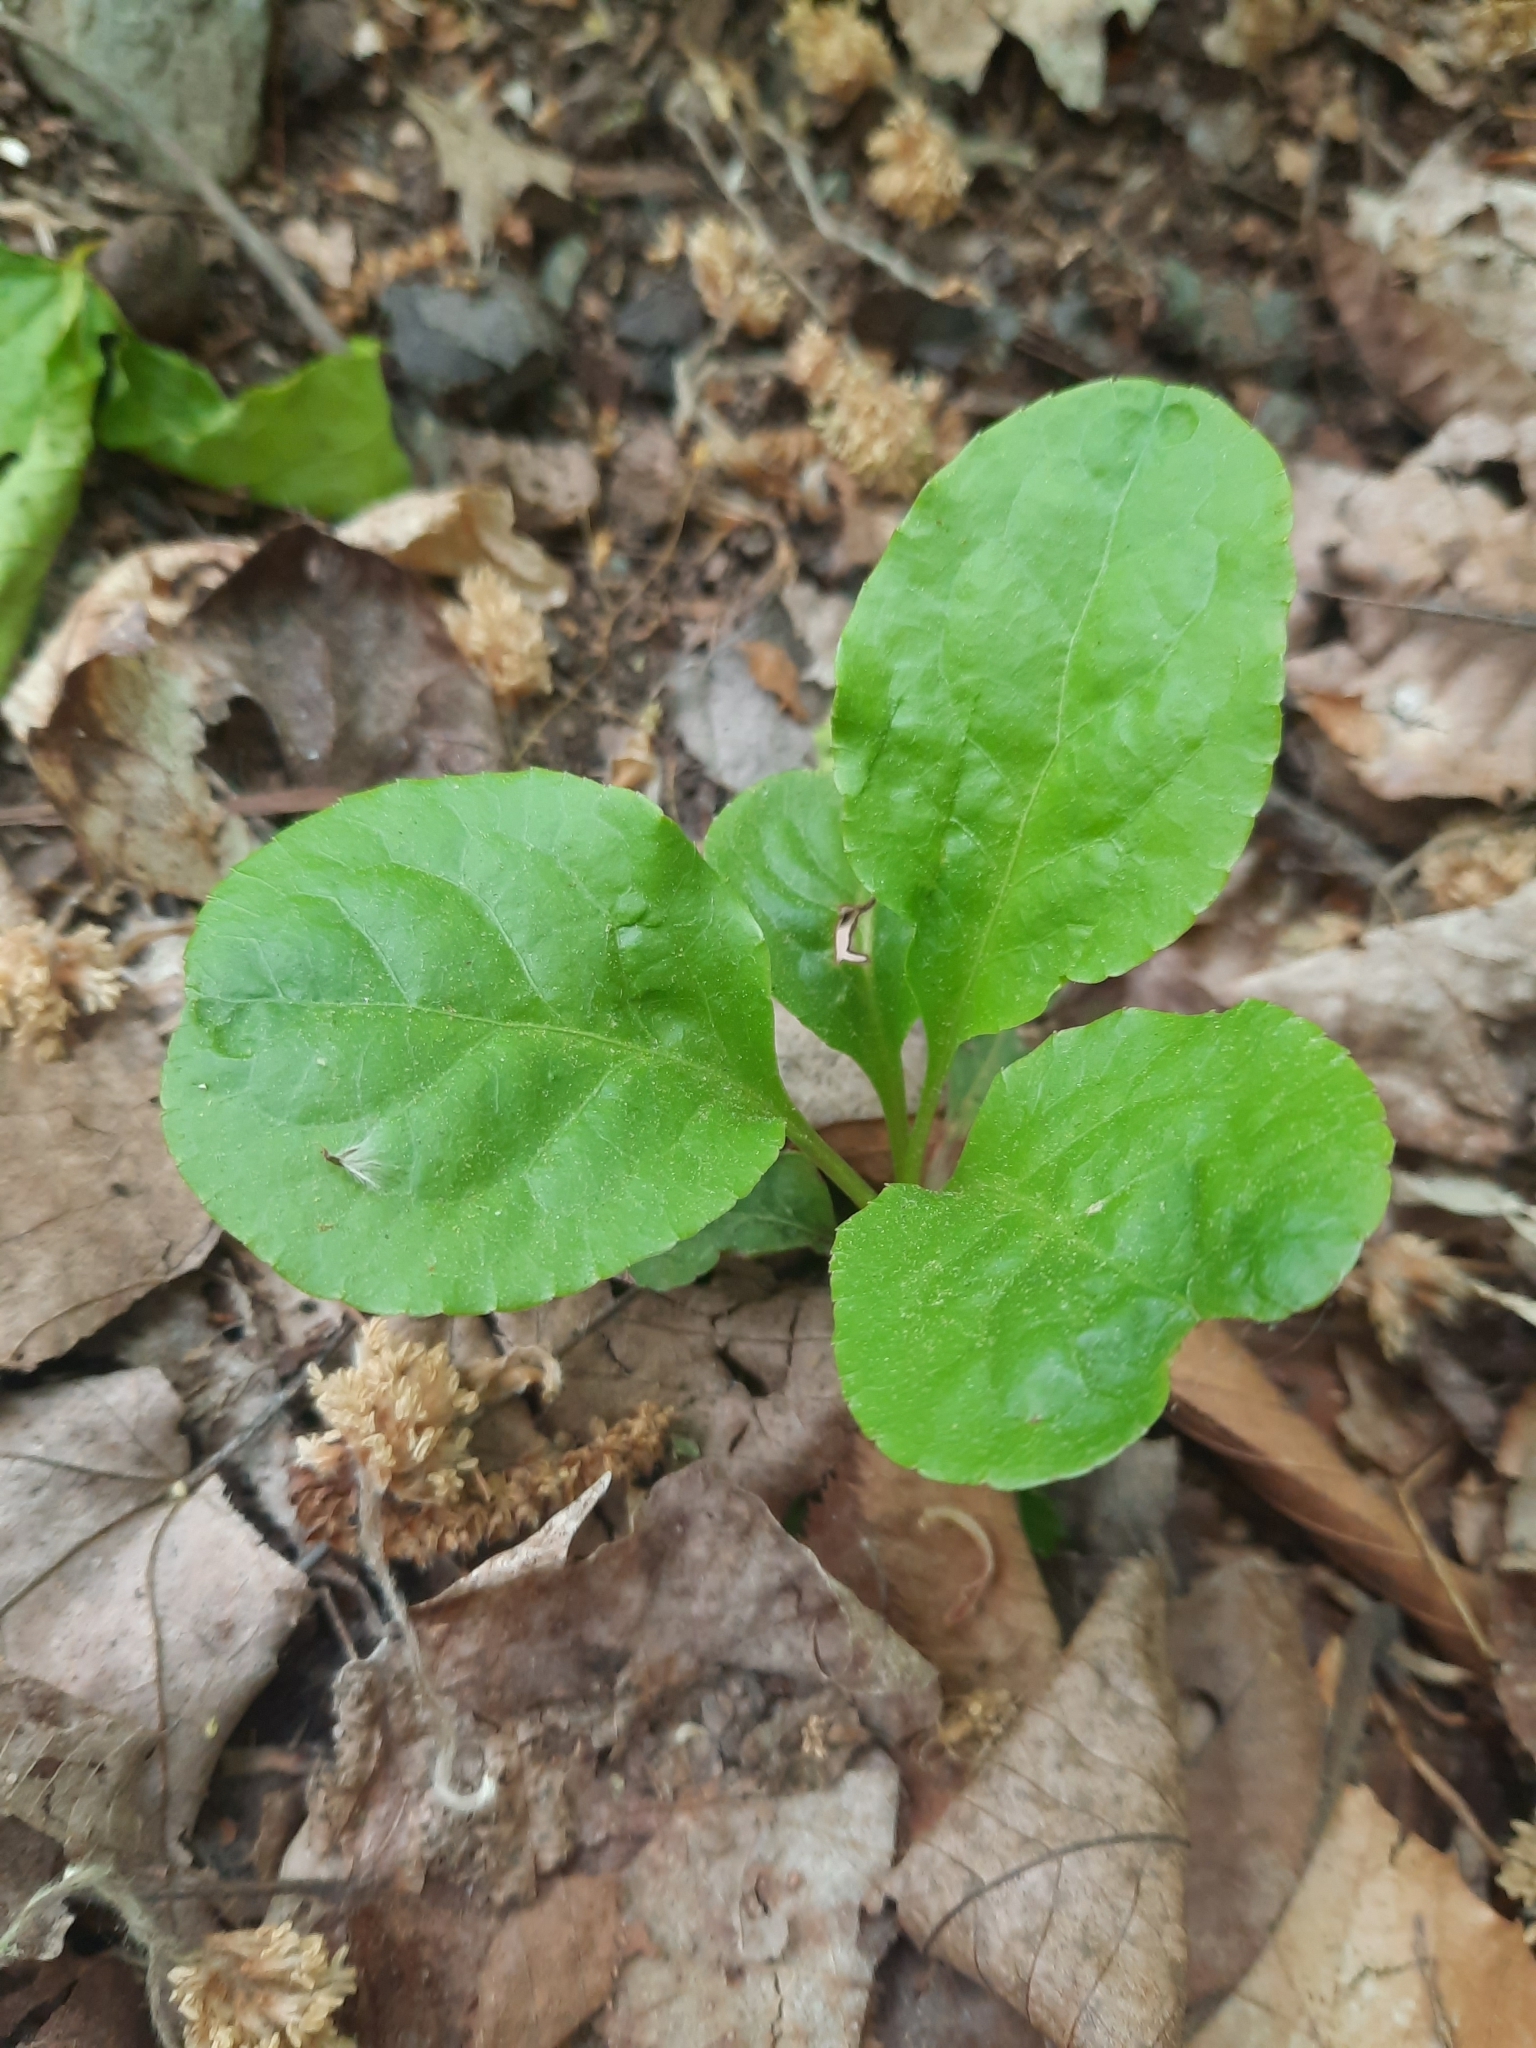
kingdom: Plantae
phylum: Tracheophyta
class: Magnoliopsida
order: Ericales
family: Ericaceae
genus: Pyrola
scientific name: Pyrola elliptica
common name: Shinleaf
